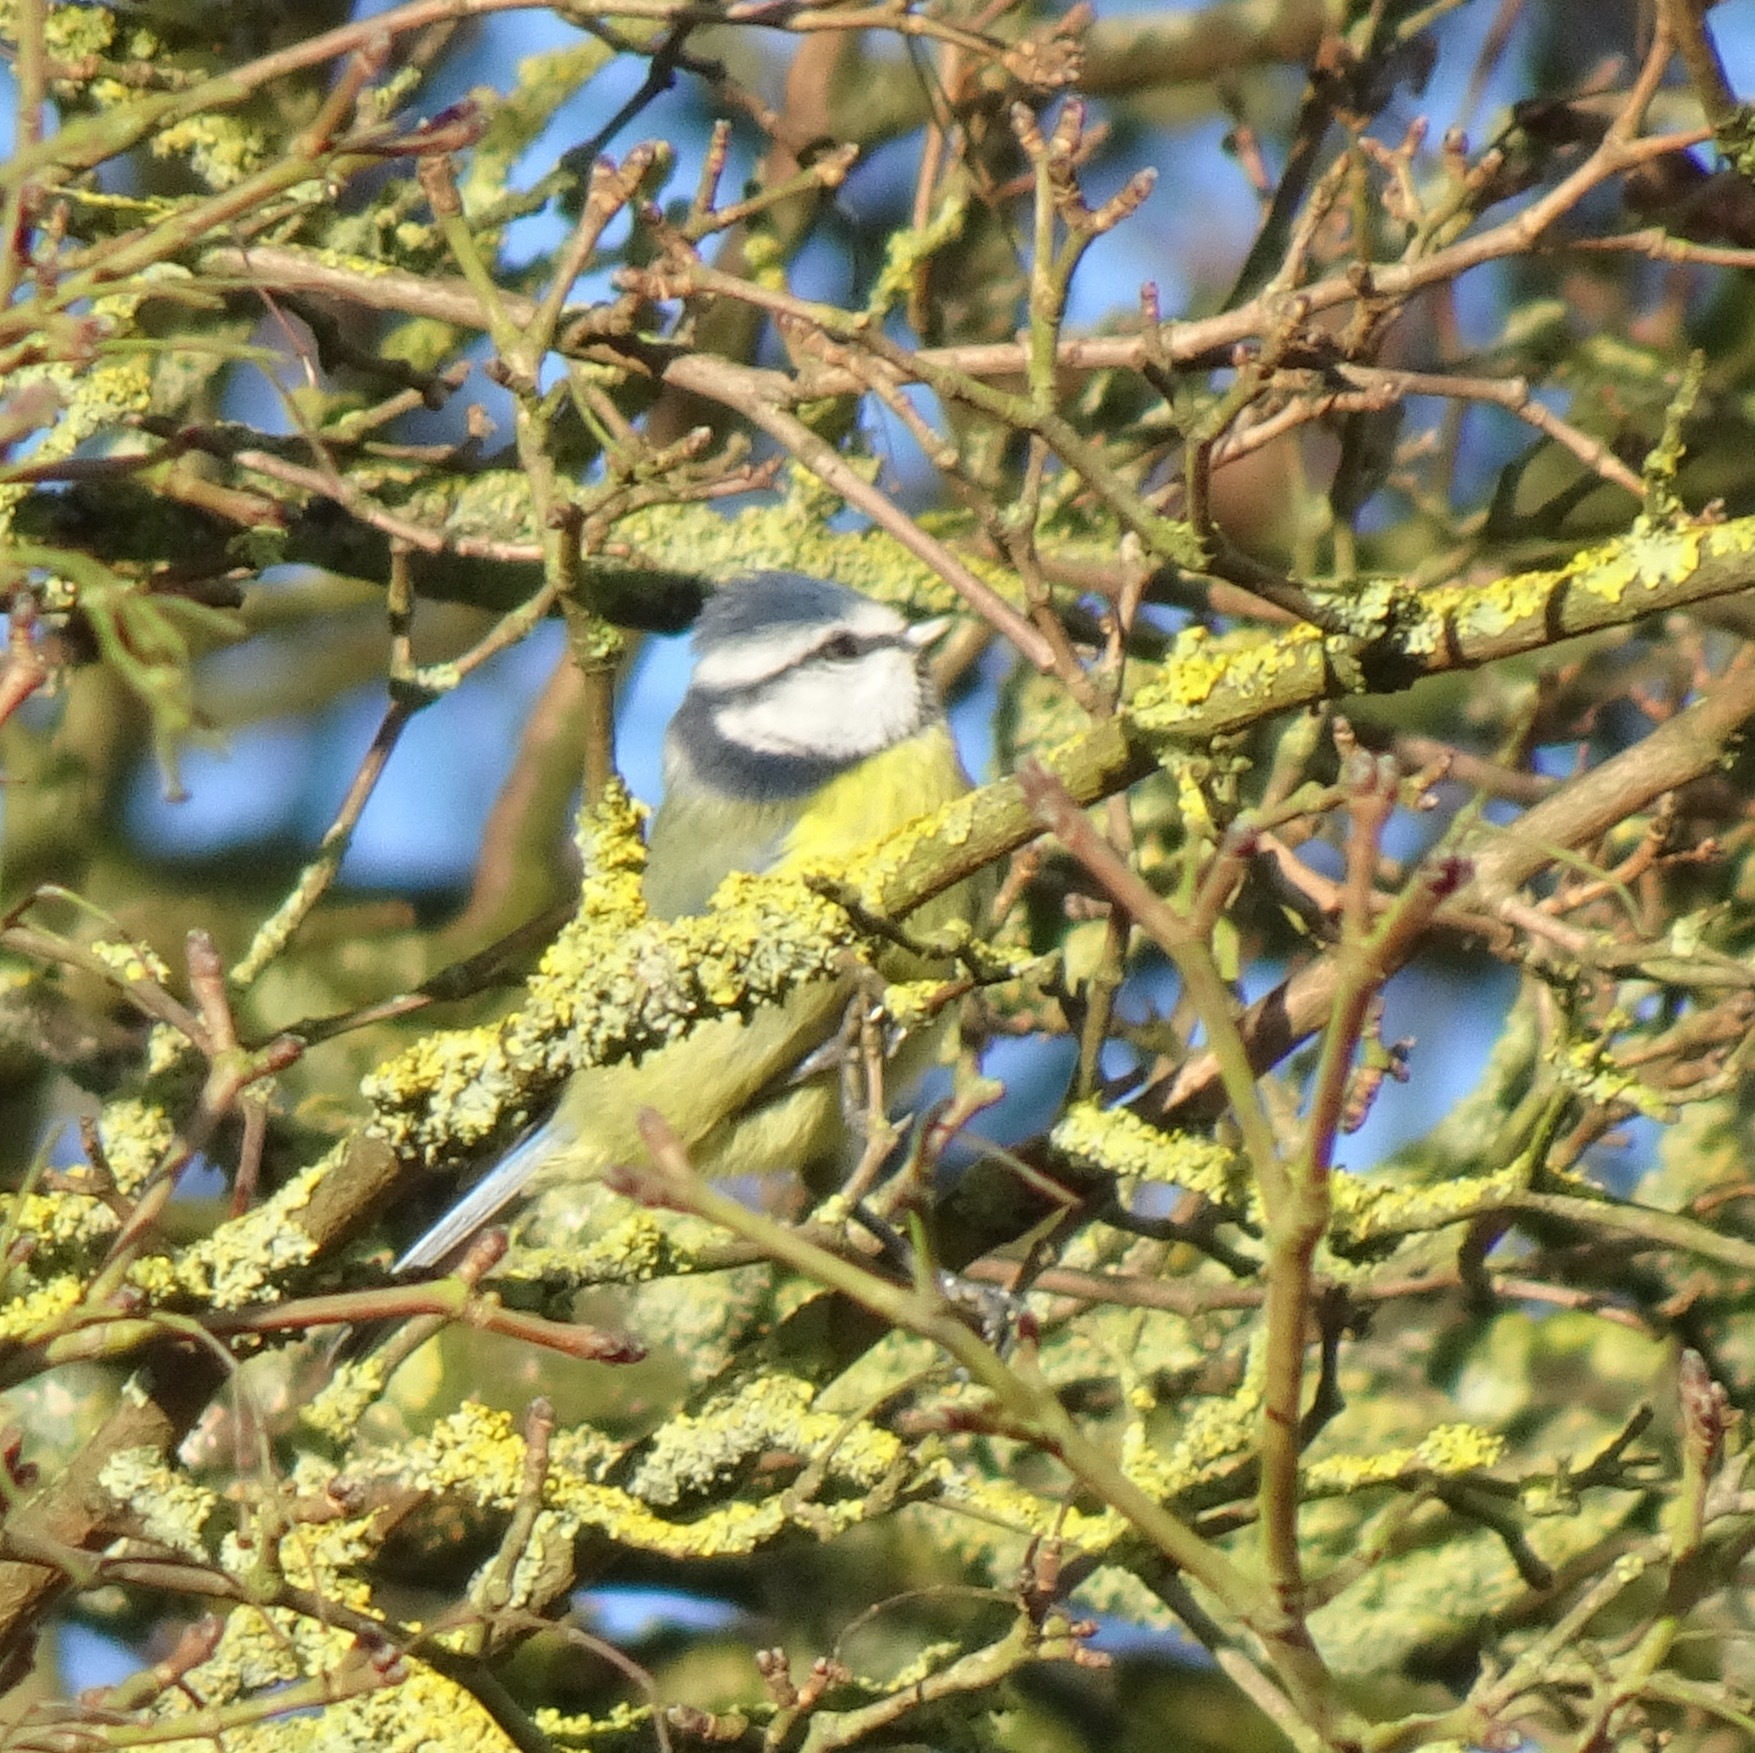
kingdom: Animalia
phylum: Chordata
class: Aves
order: Passeriformes
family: Paridae
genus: Cyanistes
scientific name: Cyanistes caeruleus
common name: Eurasian blue tit
